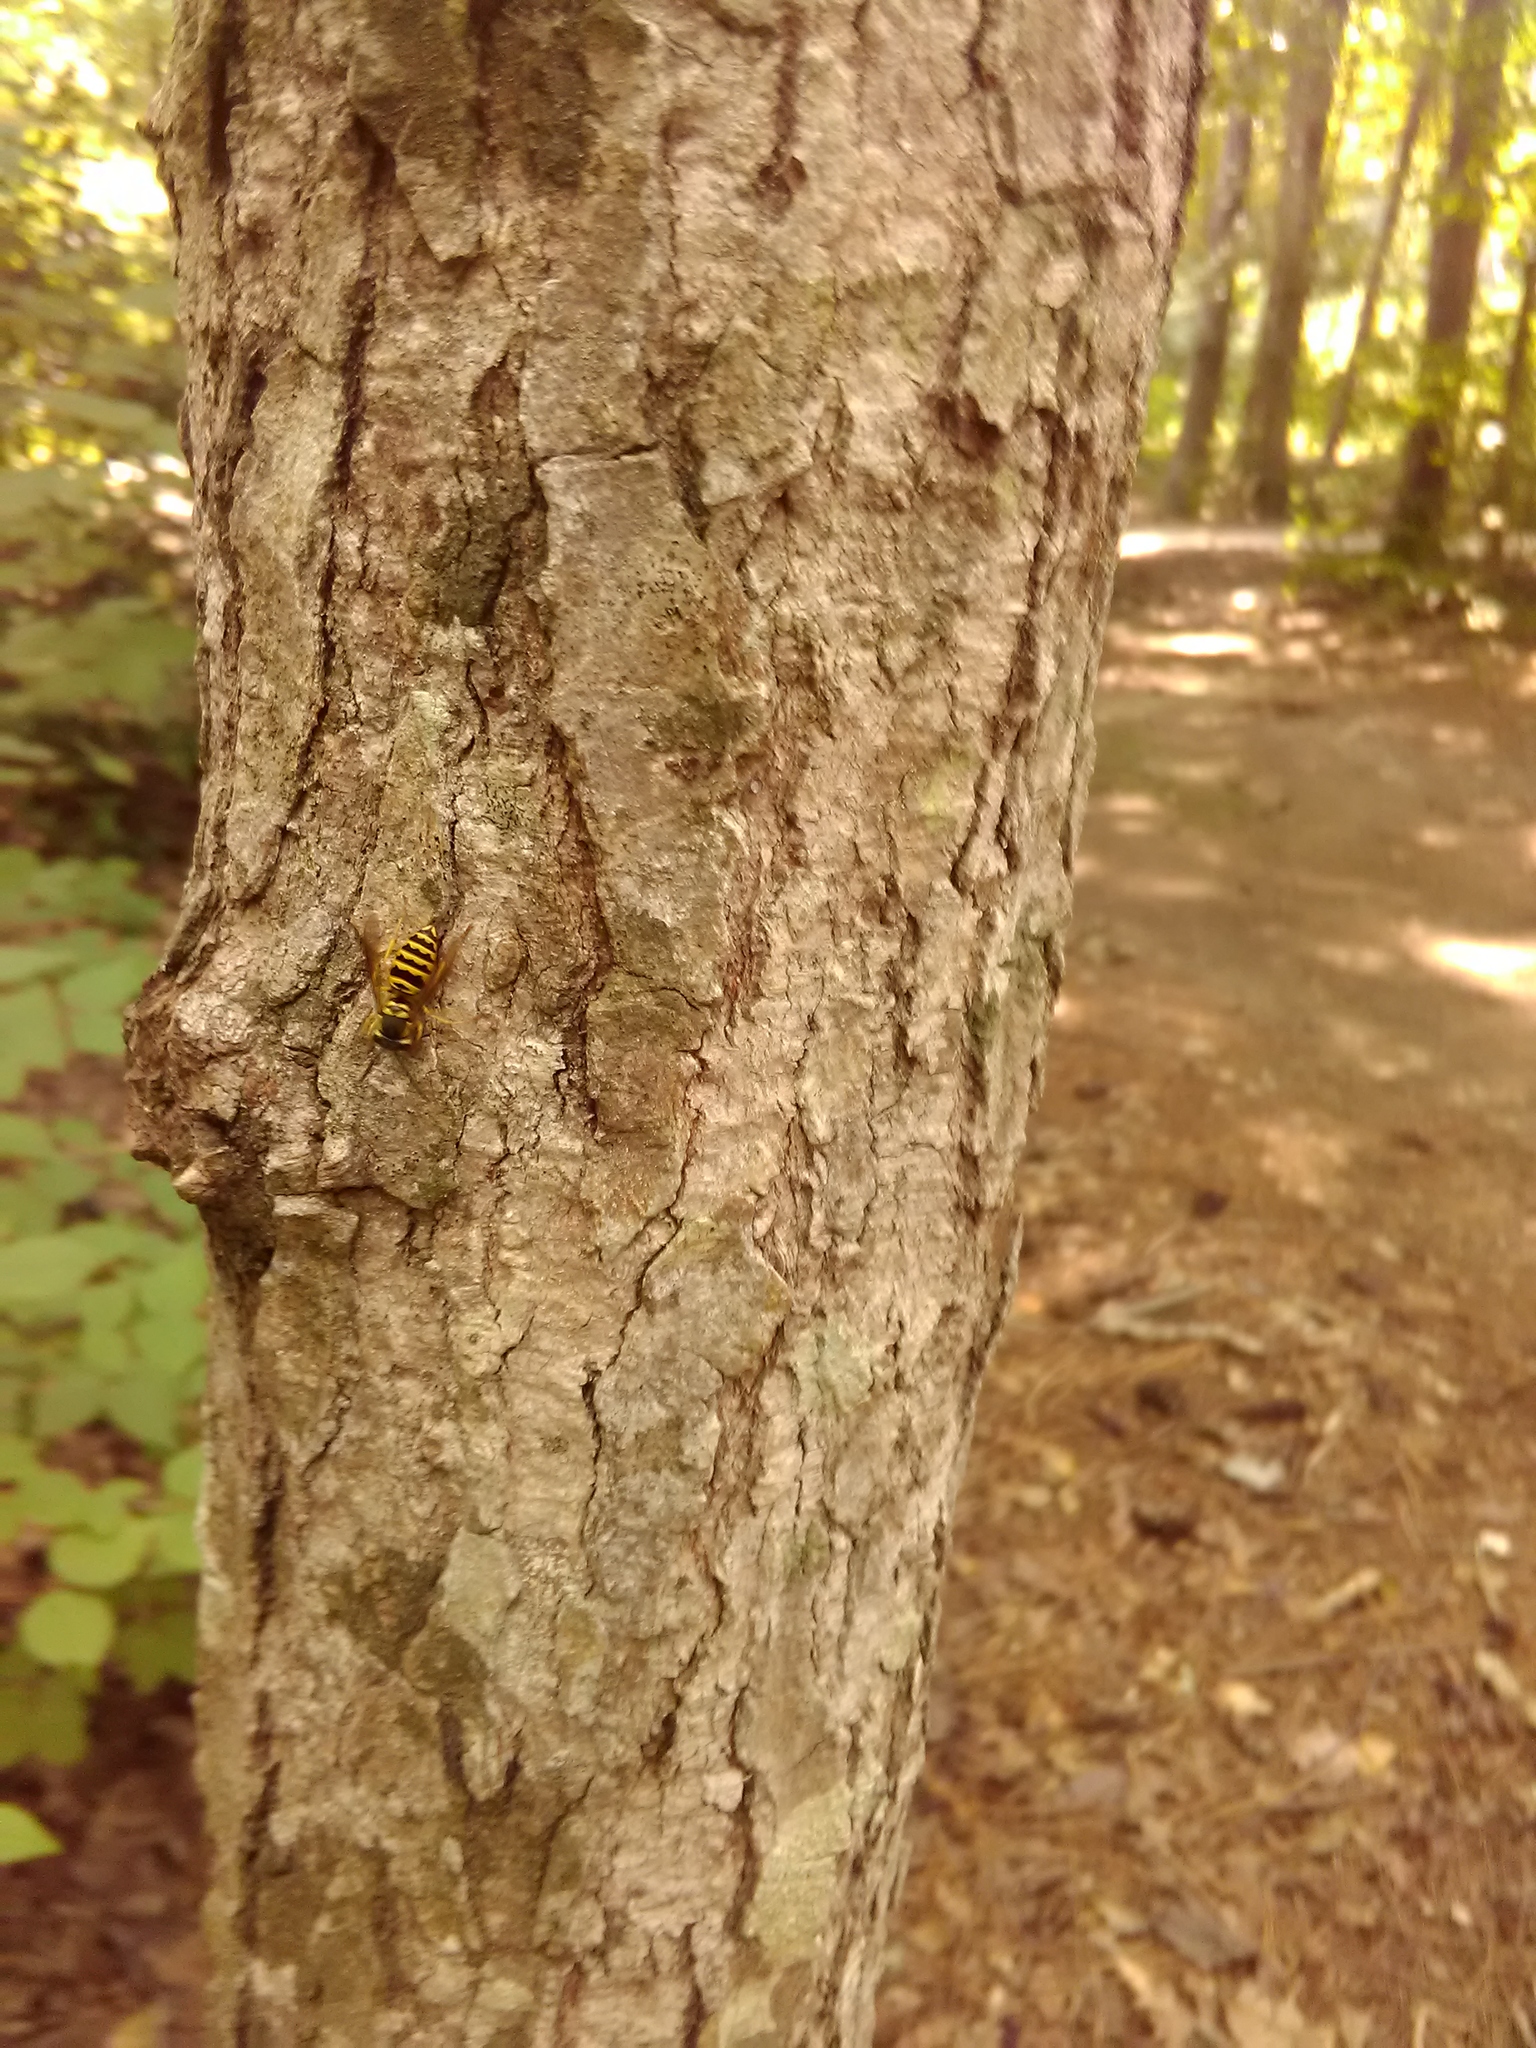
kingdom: Animalia
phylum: Arthropoda
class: Insecta
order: Hymenoptera
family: Vespidae
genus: Vespula
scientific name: Vespula maculifrons
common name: Eastern yellowjacket
